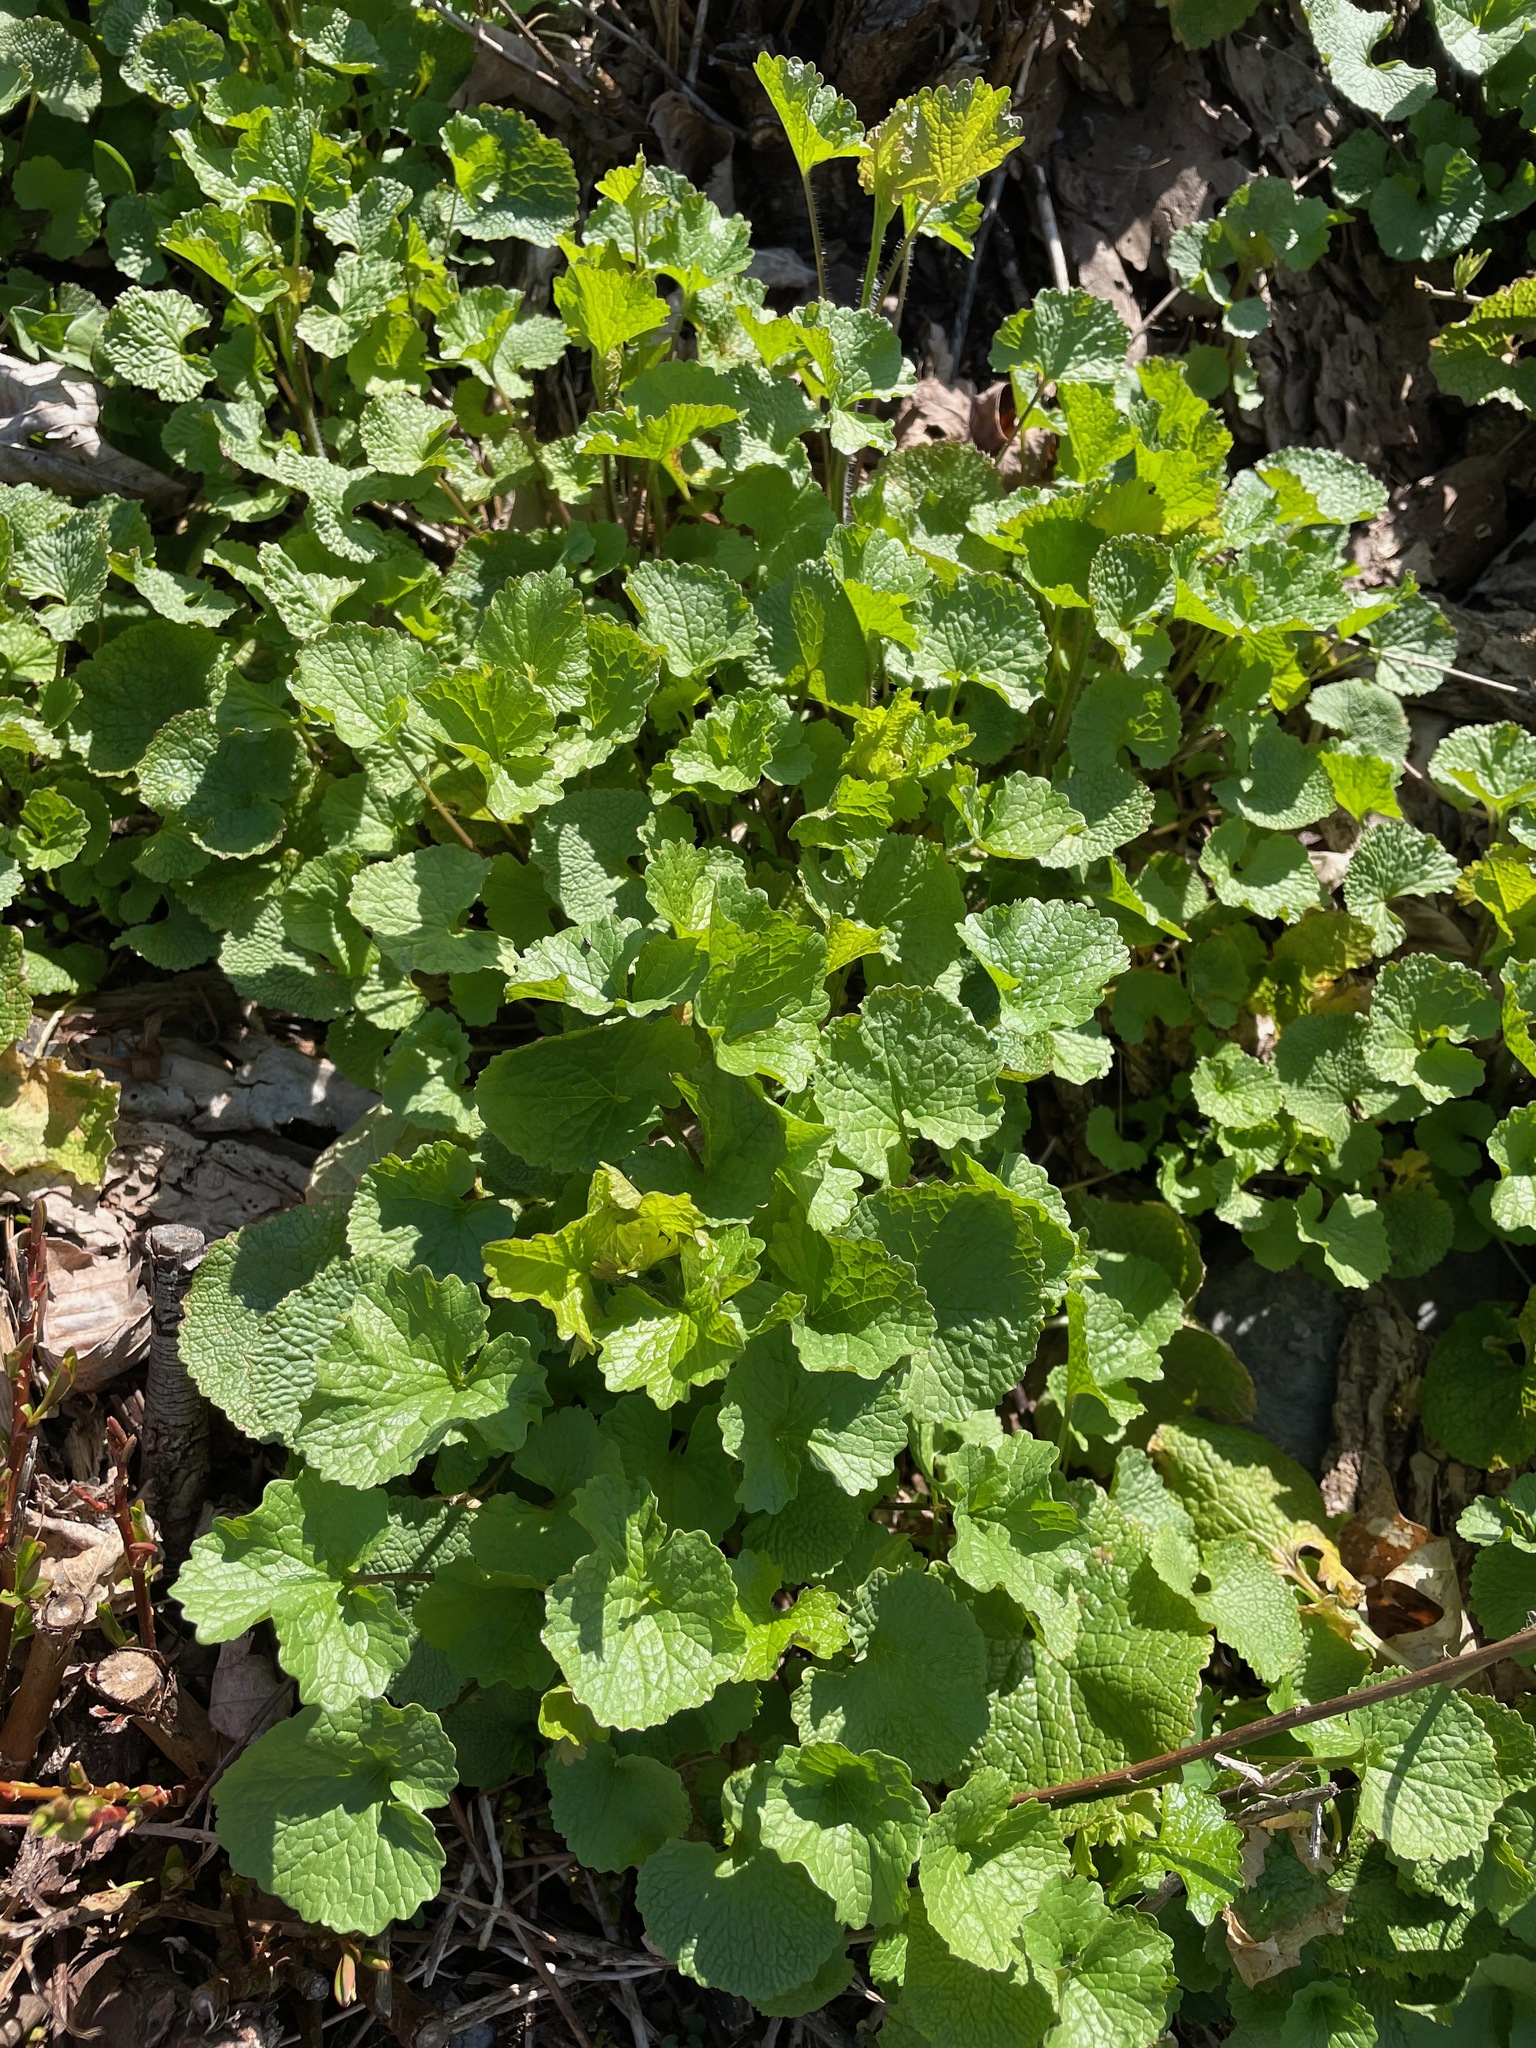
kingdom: Plantae
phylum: Tracheophyta
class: Magnoliopsida
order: Brassicales
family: Brassicaceae
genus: Alliaria
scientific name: Alliaria petiolata
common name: Garlic mustard
